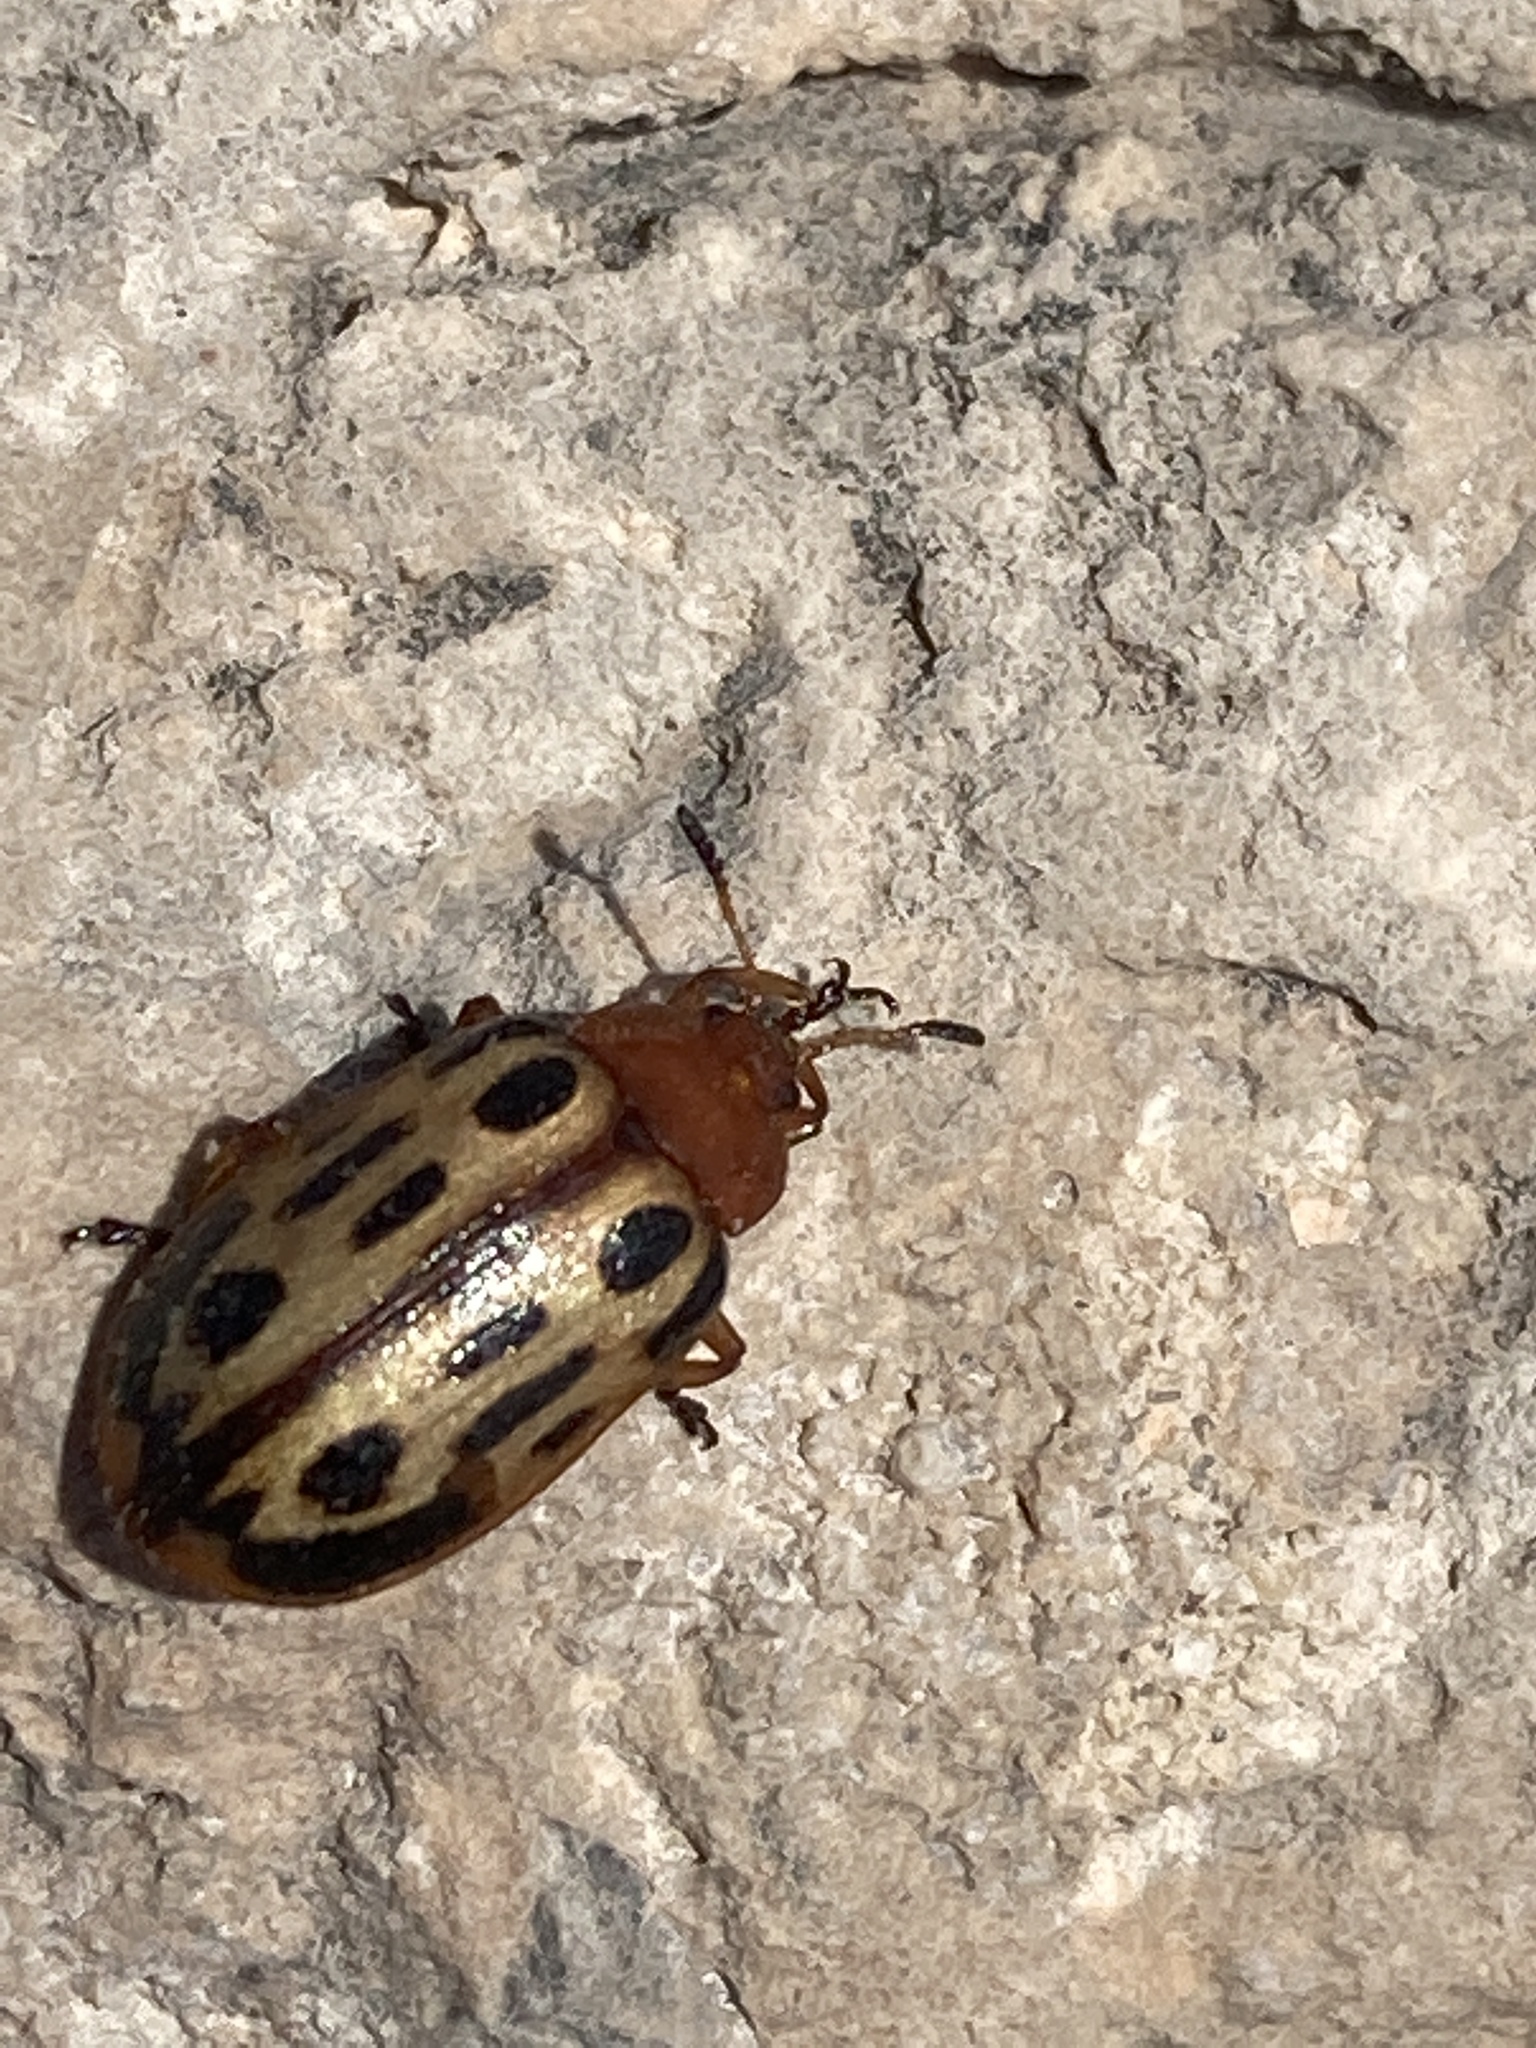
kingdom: Animalia
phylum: Arthropoda
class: Insecta
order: Coleoptera
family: Chrysomelidae
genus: Chrysomela
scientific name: Chrysomela texana
